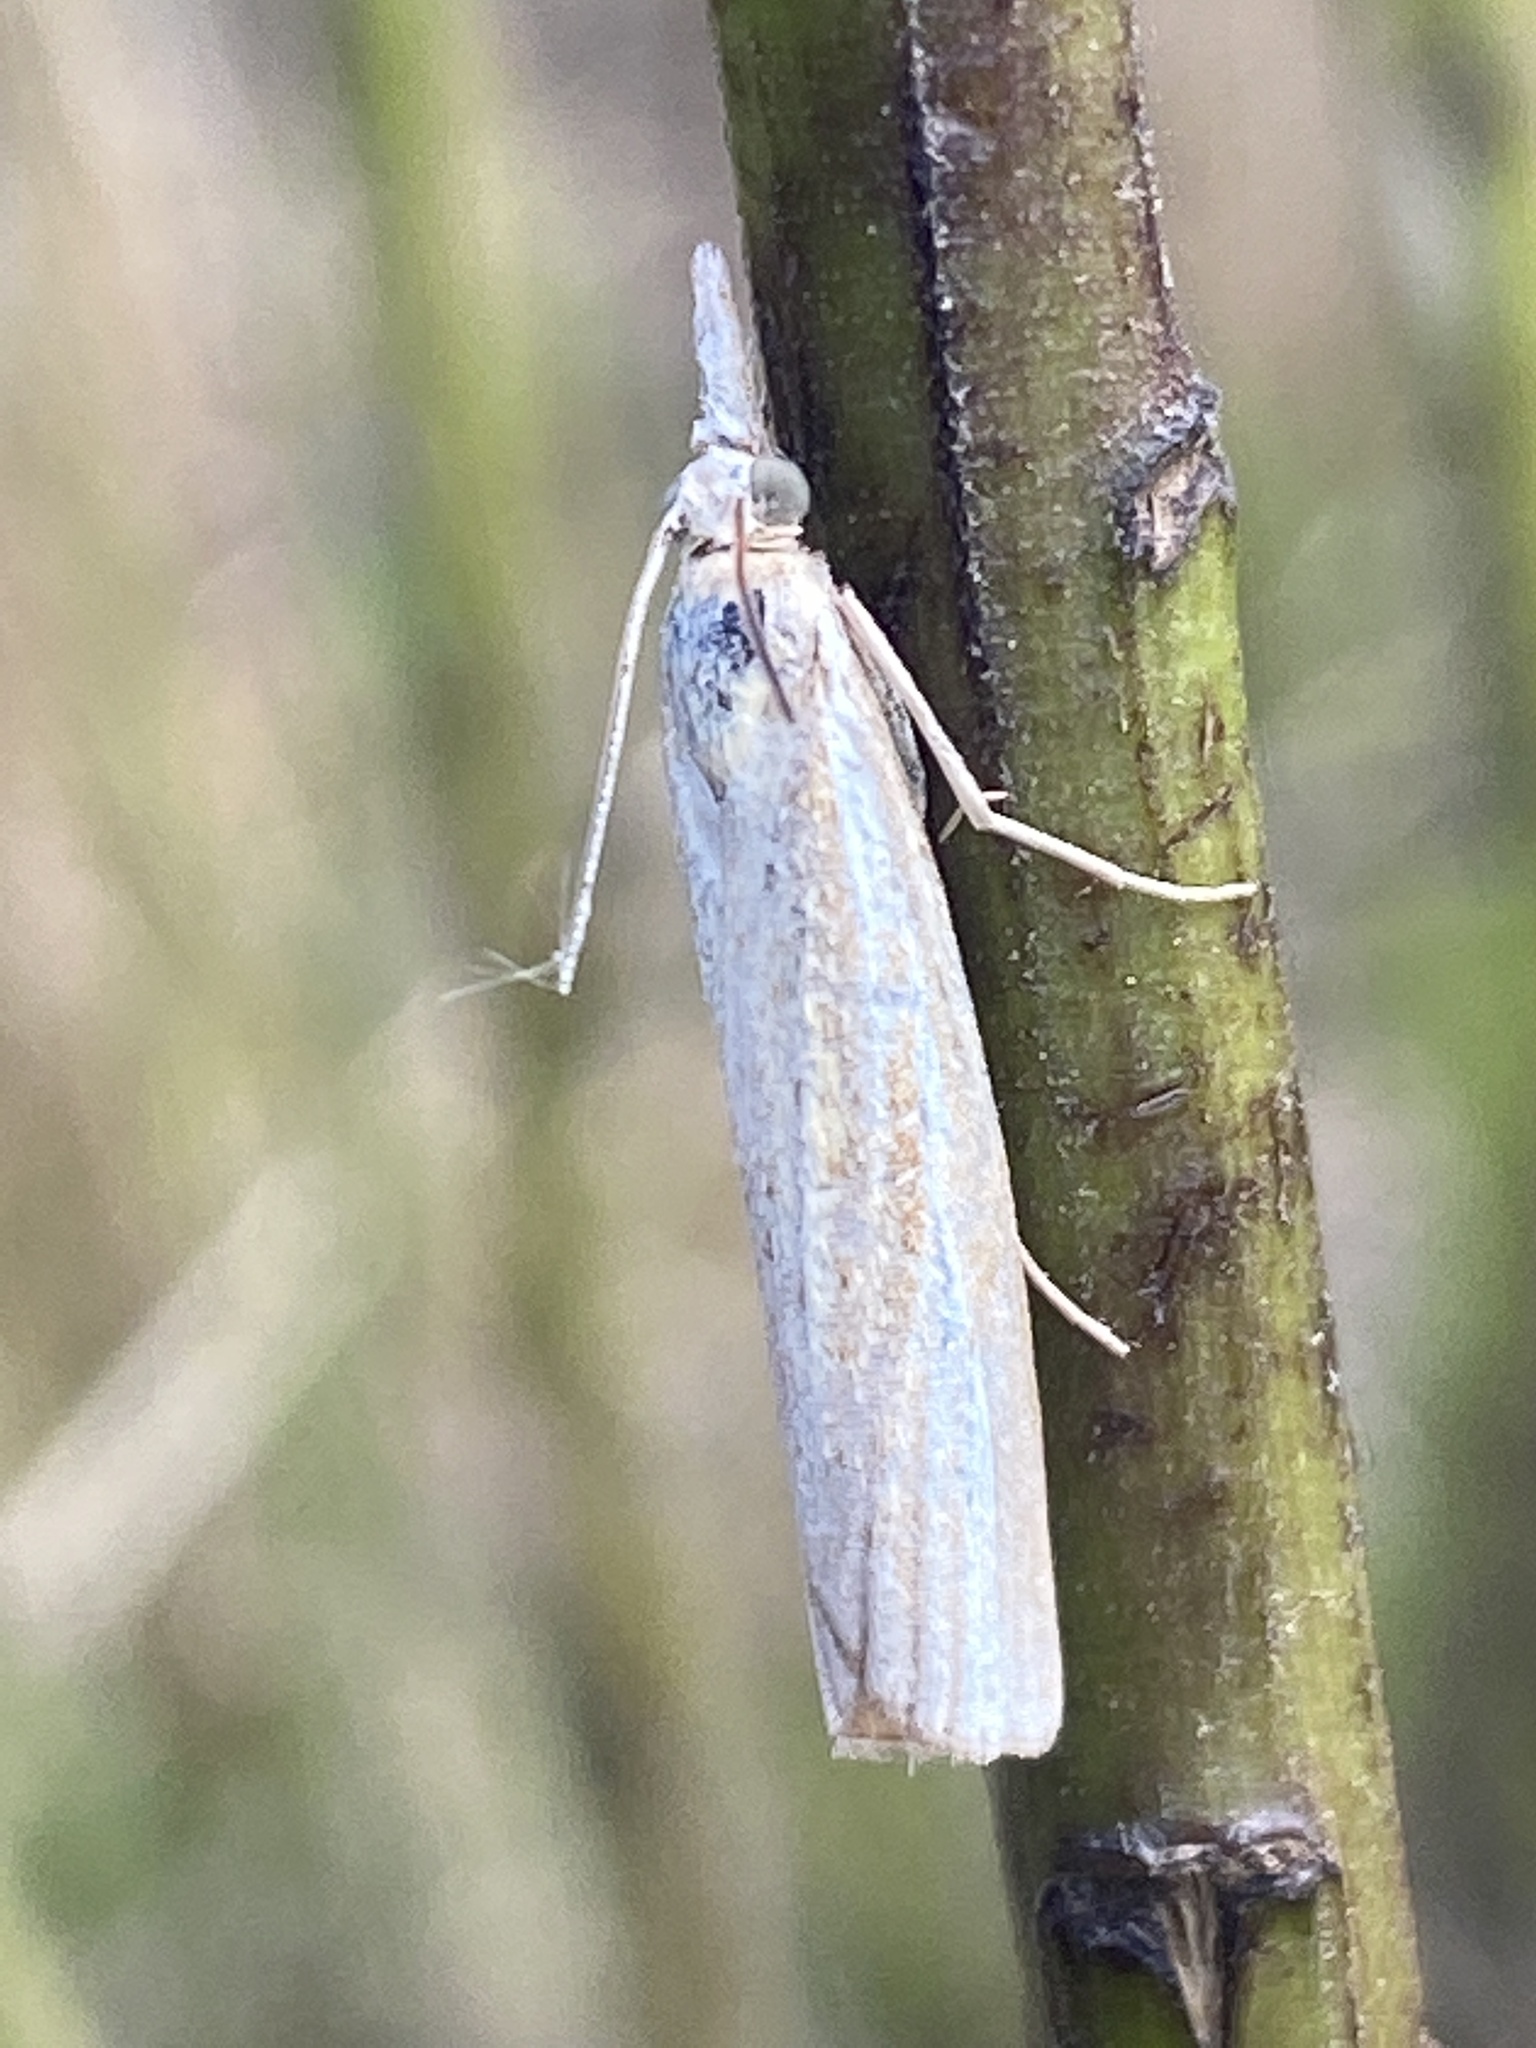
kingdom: Animalia
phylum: Arthropoda
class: Insecta
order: Lepidoptera
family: Crambidae
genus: Agriphila
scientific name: Agriphila tristellus
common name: Common grass-veneer
